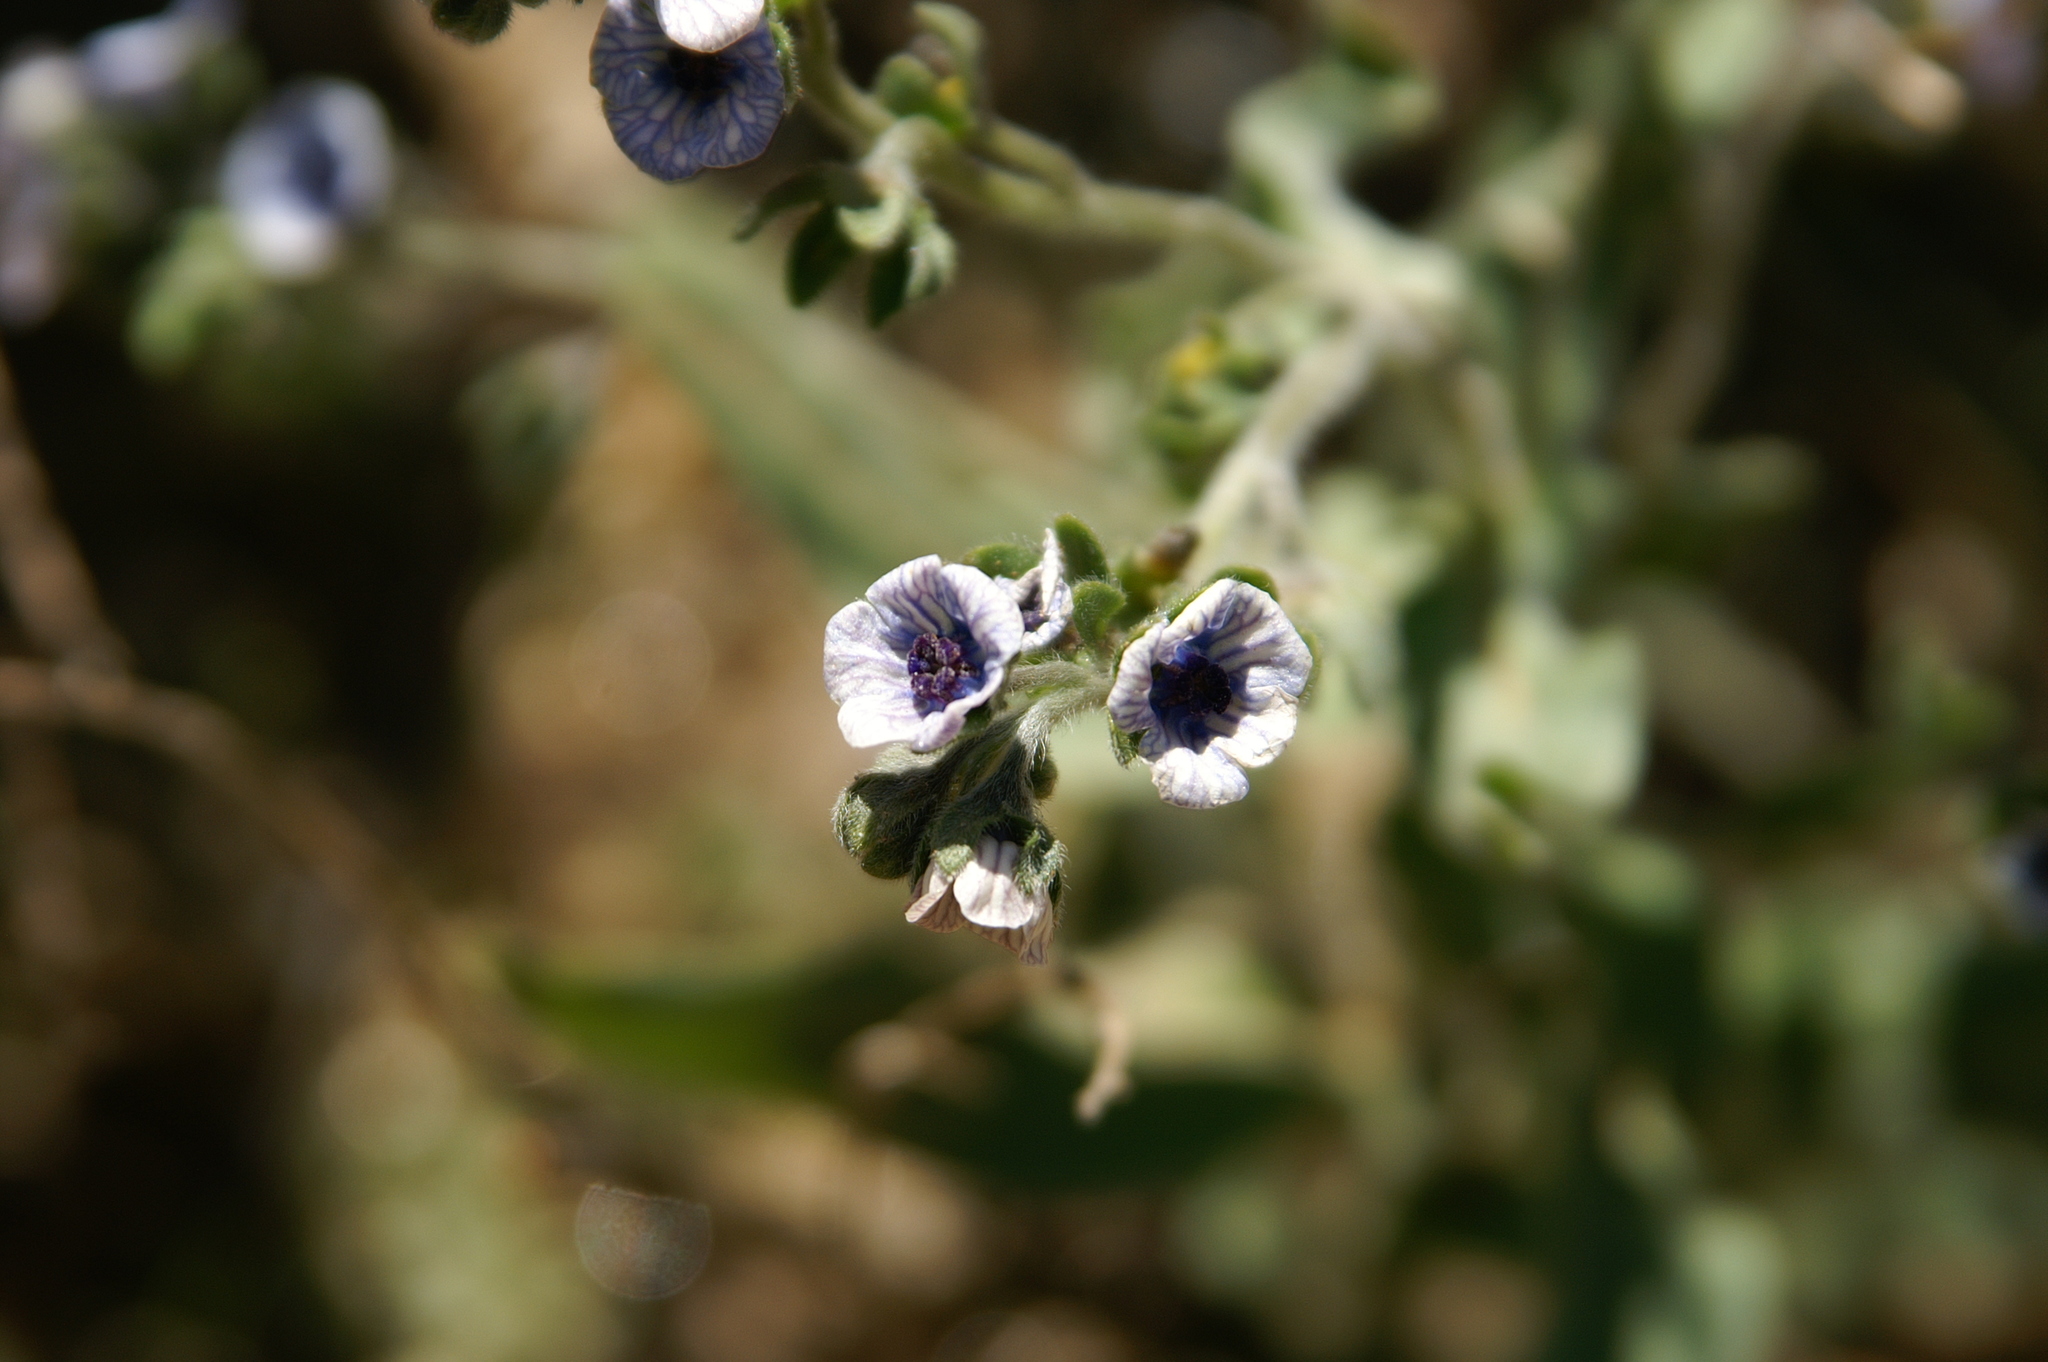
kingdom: Plantae
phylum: Tracheophyta
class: Magnoliopsida
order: Boraginales
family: Boraginaceae
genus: Cynoglossum
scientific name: Cynoglossum creticum
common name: Blue hound's tongue
